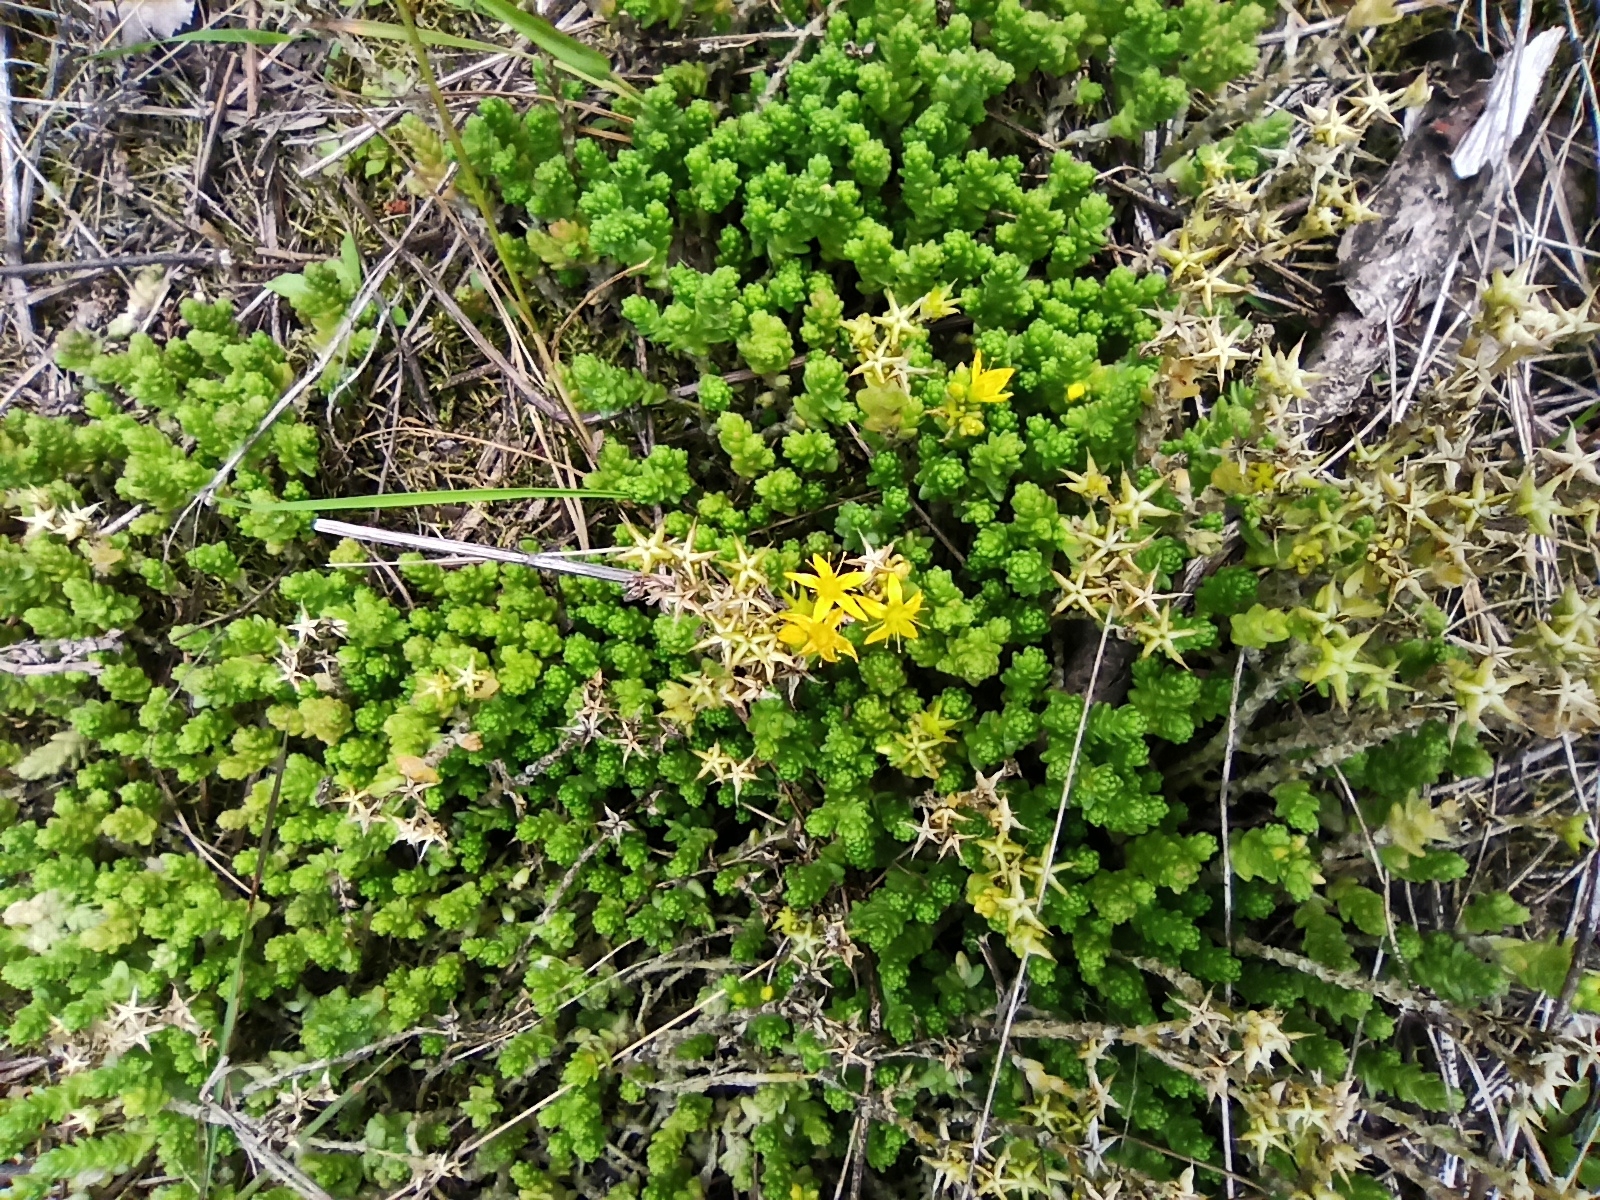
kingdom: Plantae
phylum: Tracheophyta
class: Magnoliopsida
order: Saxifragales
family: Crassulaceae
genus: Sedum
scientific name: Sedum acre
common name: Biting stonecrop
